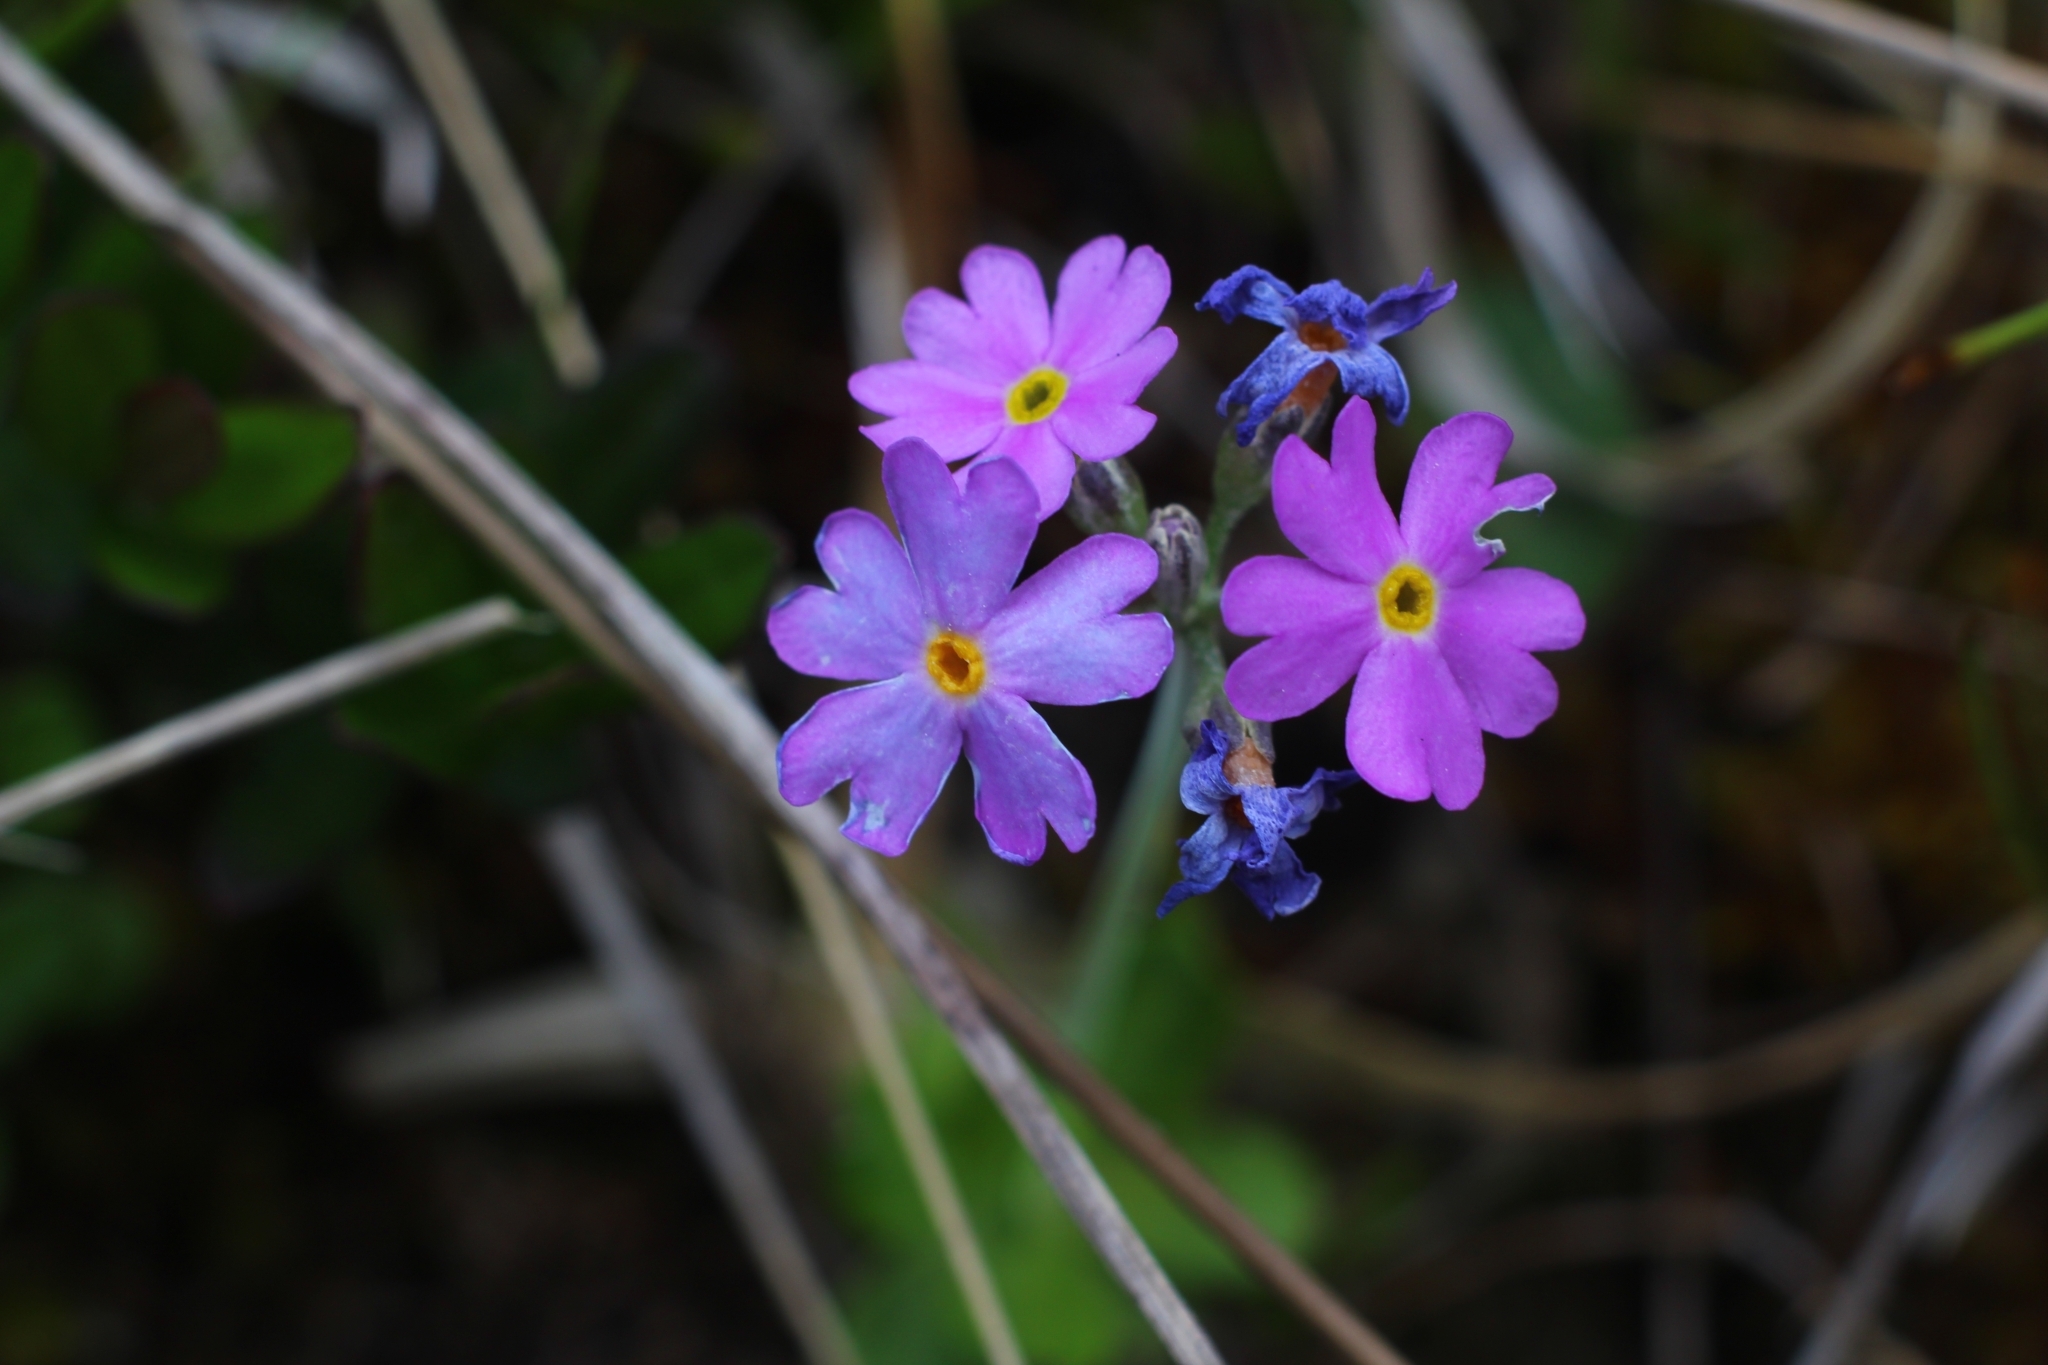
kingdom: Plantae
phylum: Tracheophyta
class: Magnoliopsida
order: Ericales
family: Primulaceae
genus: Primula
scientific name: Primula farinosa
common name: Bird's-eye primrose
